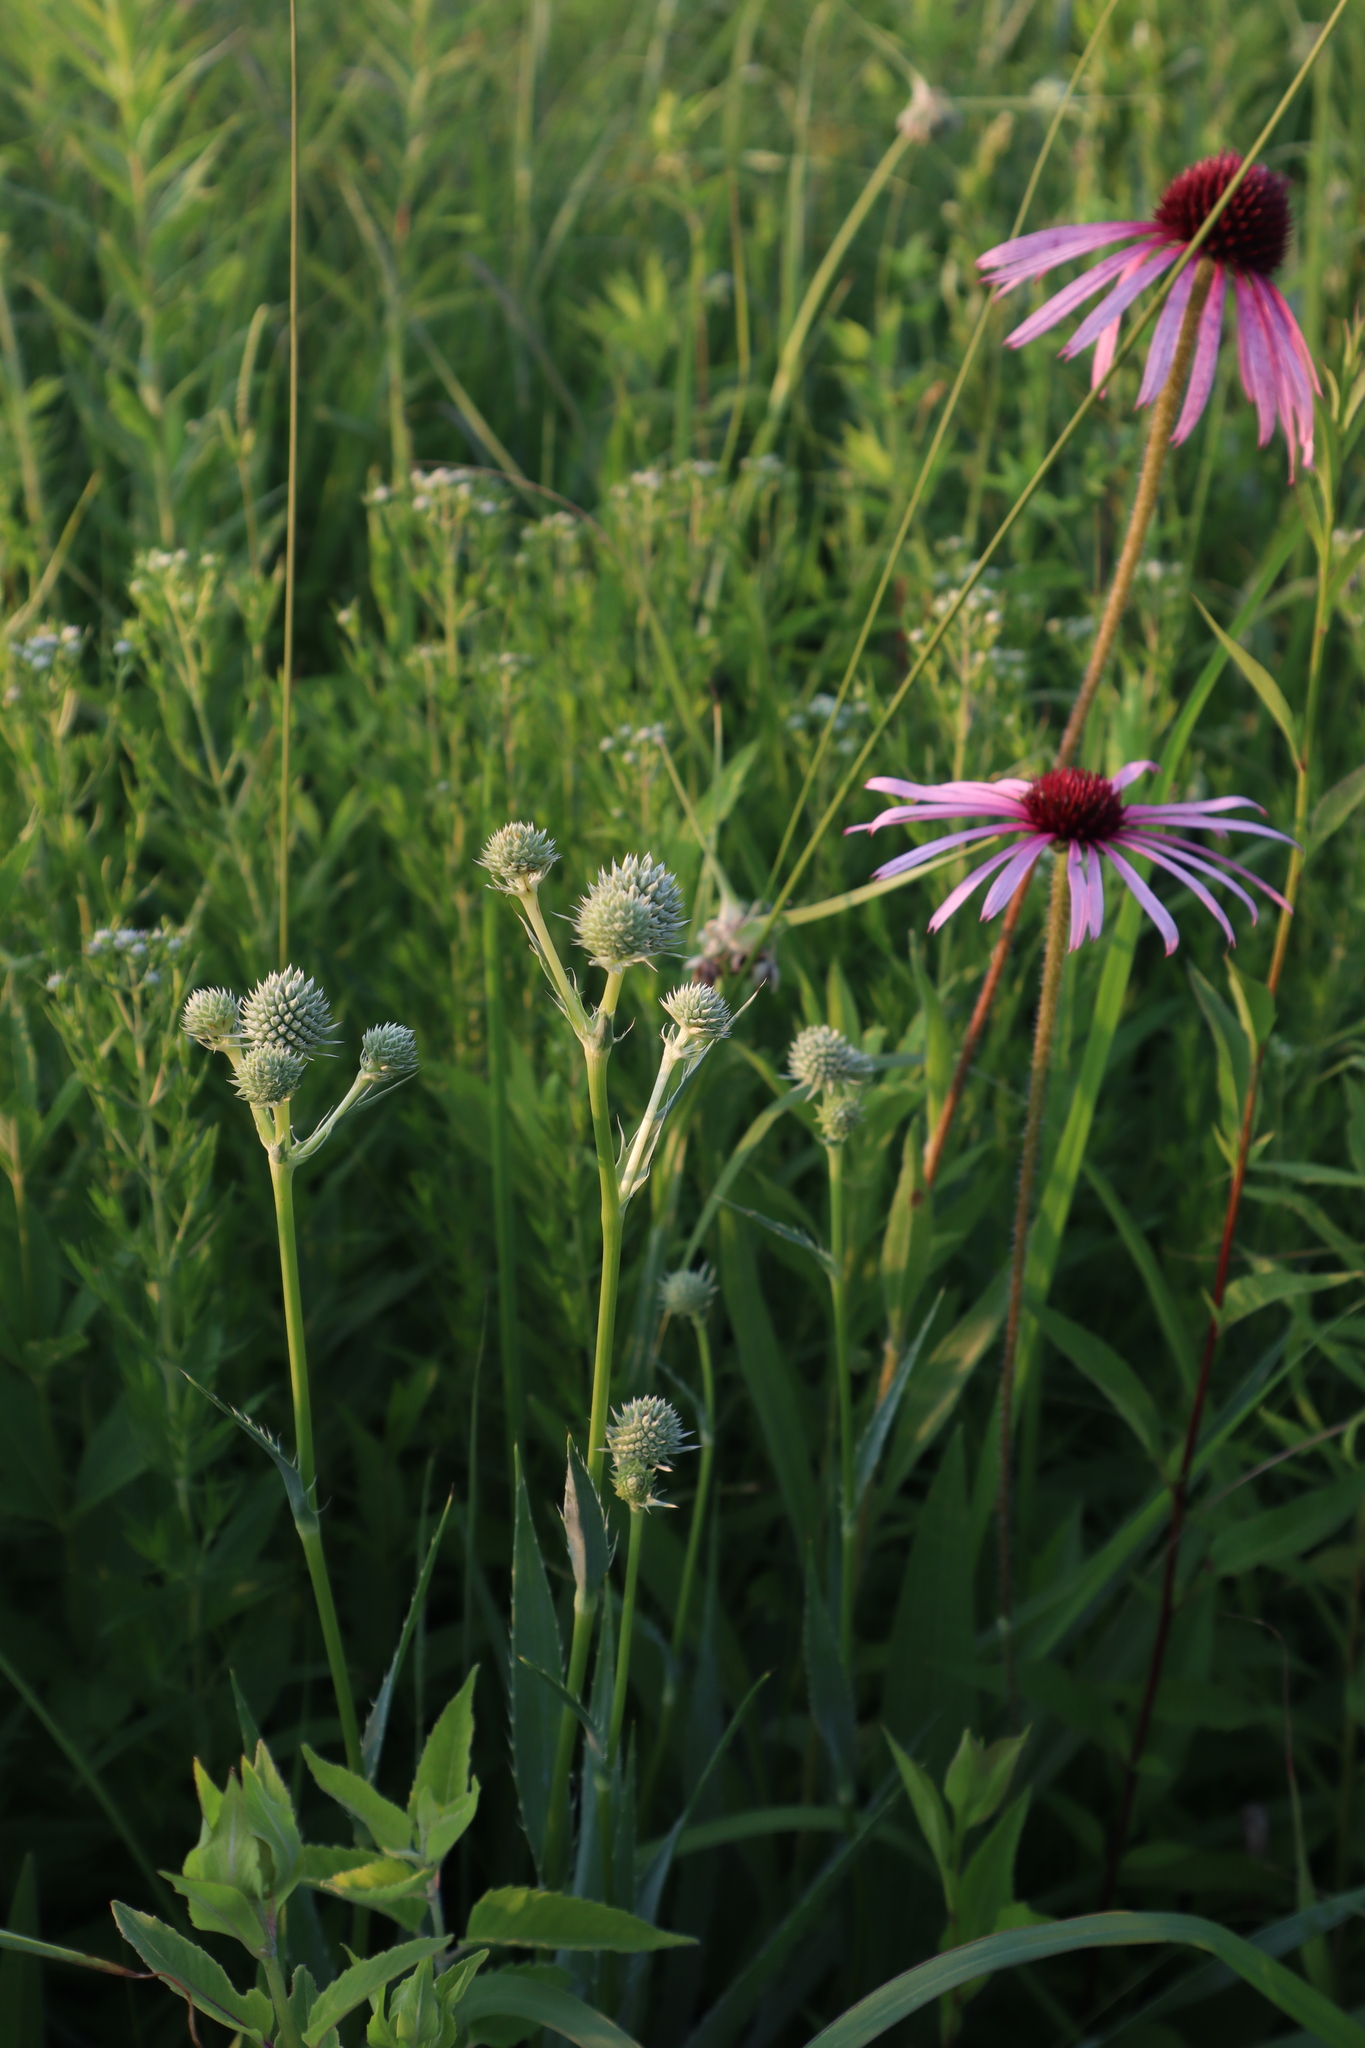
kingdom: Plantae
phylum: Tracheophyta
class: Magnoliopsida
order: Apiales
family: Apiaceae
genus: Eryngium
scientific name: Eryngium yuccifolium
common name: Button eryngo
